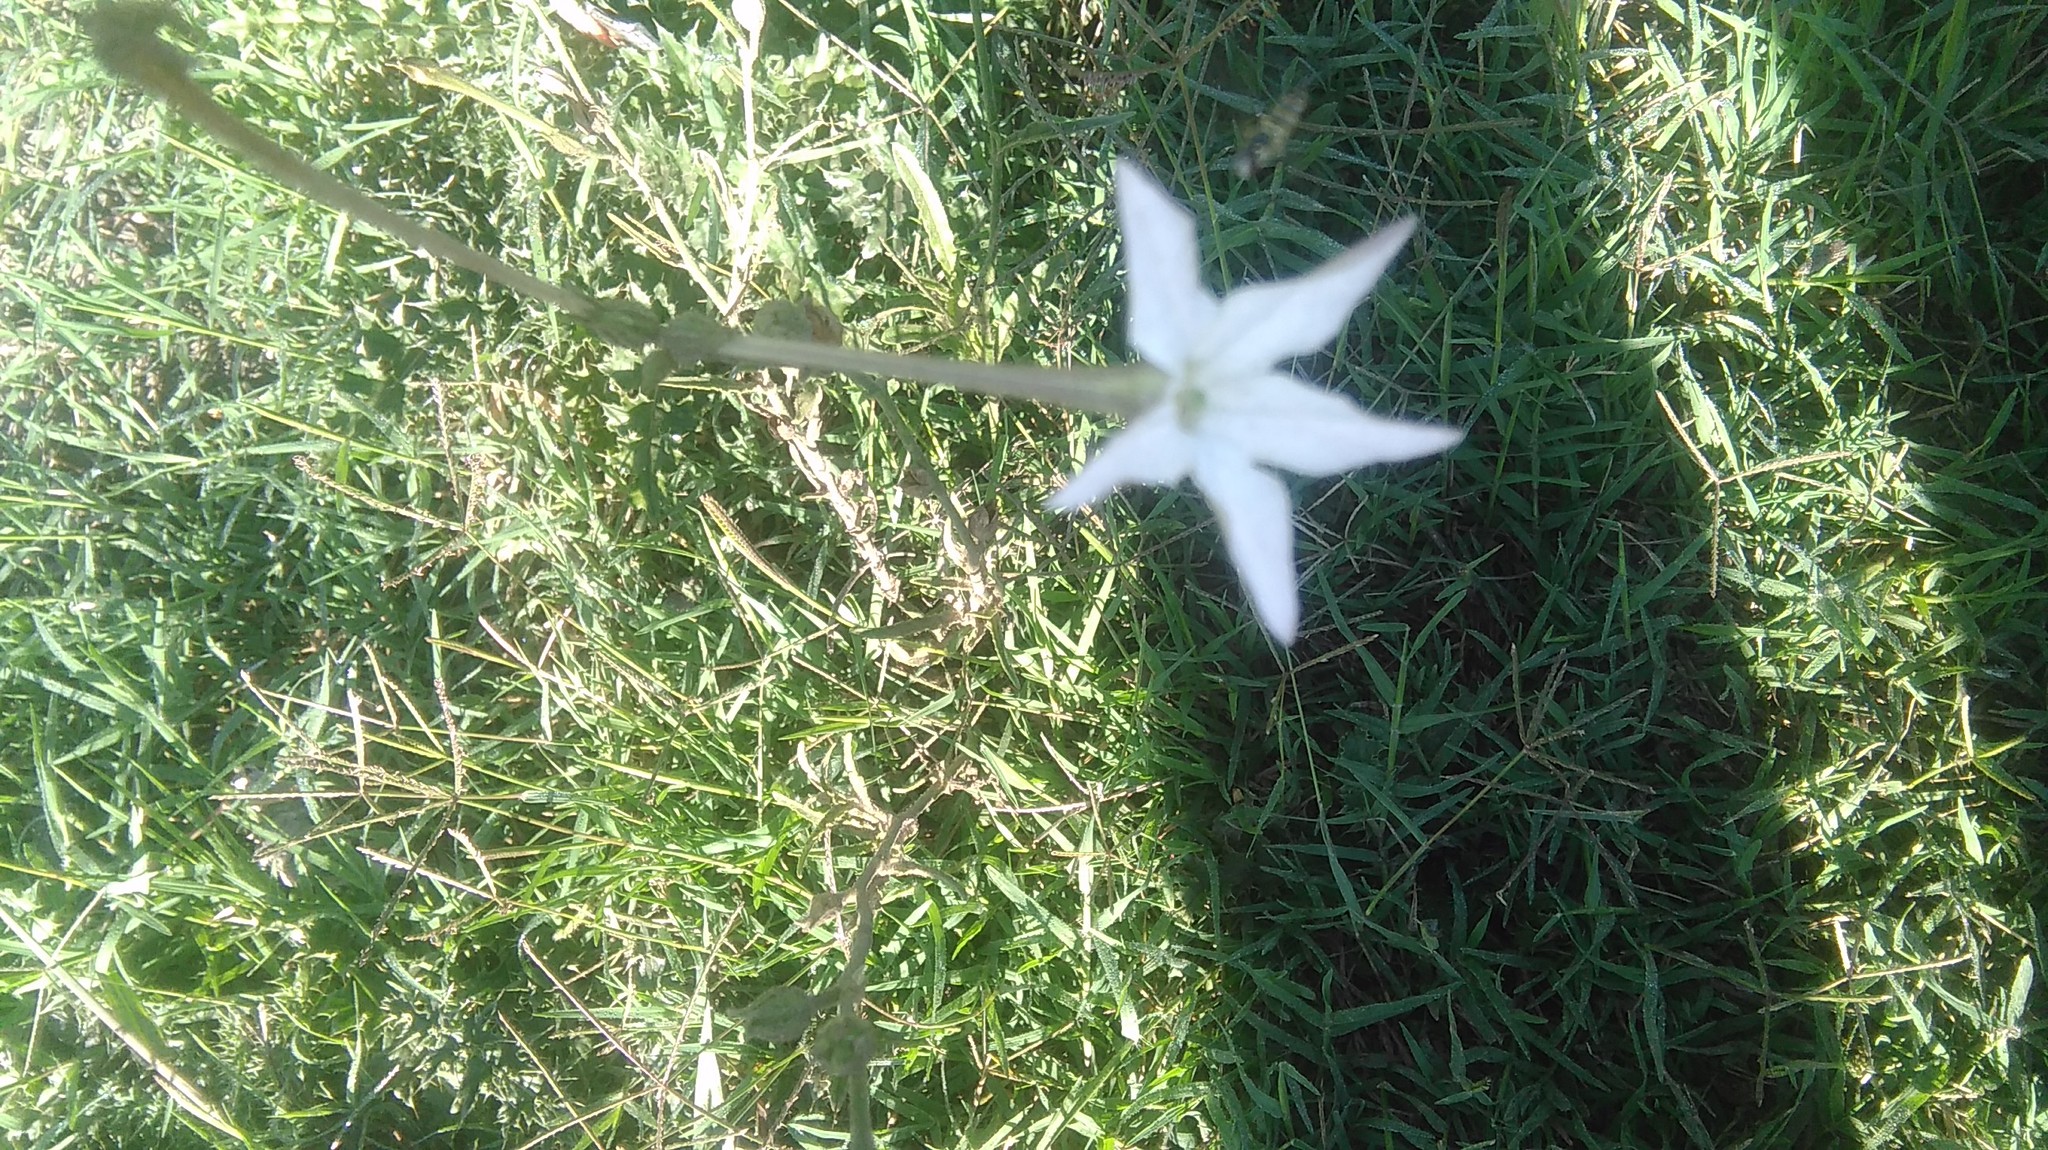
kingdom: Plantae
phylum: Tracheophyta
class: Magnoliopsida
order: Solanales
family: Solanaceae
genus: Nicotiana
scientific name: Nicotiana longiflora
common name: Long-flowered tobacco
